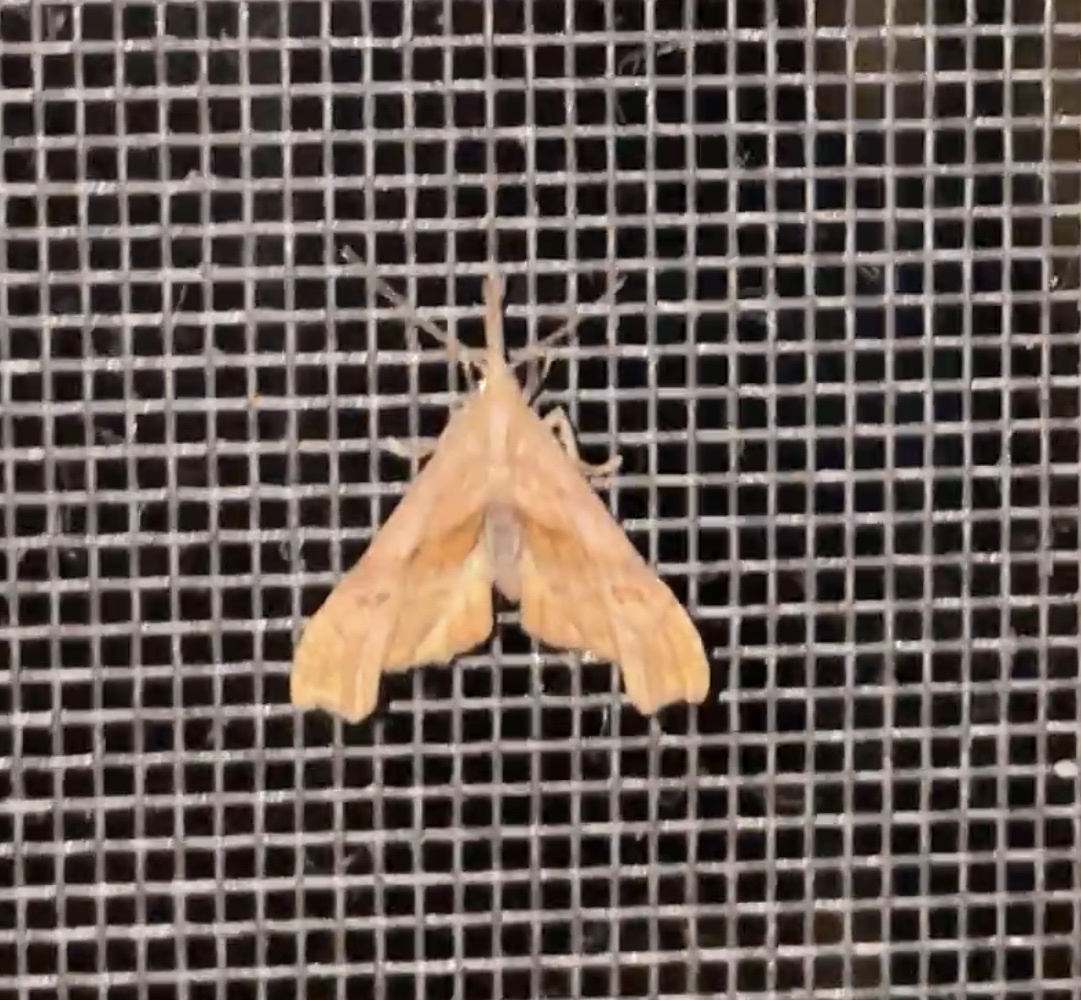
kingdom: Animalia
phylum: Arthropoda
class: Insecta
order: Lepidoptera
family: Erebidae
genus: Palthis
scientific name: Palthis angulalis
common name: Dark-spotted palthis moth
